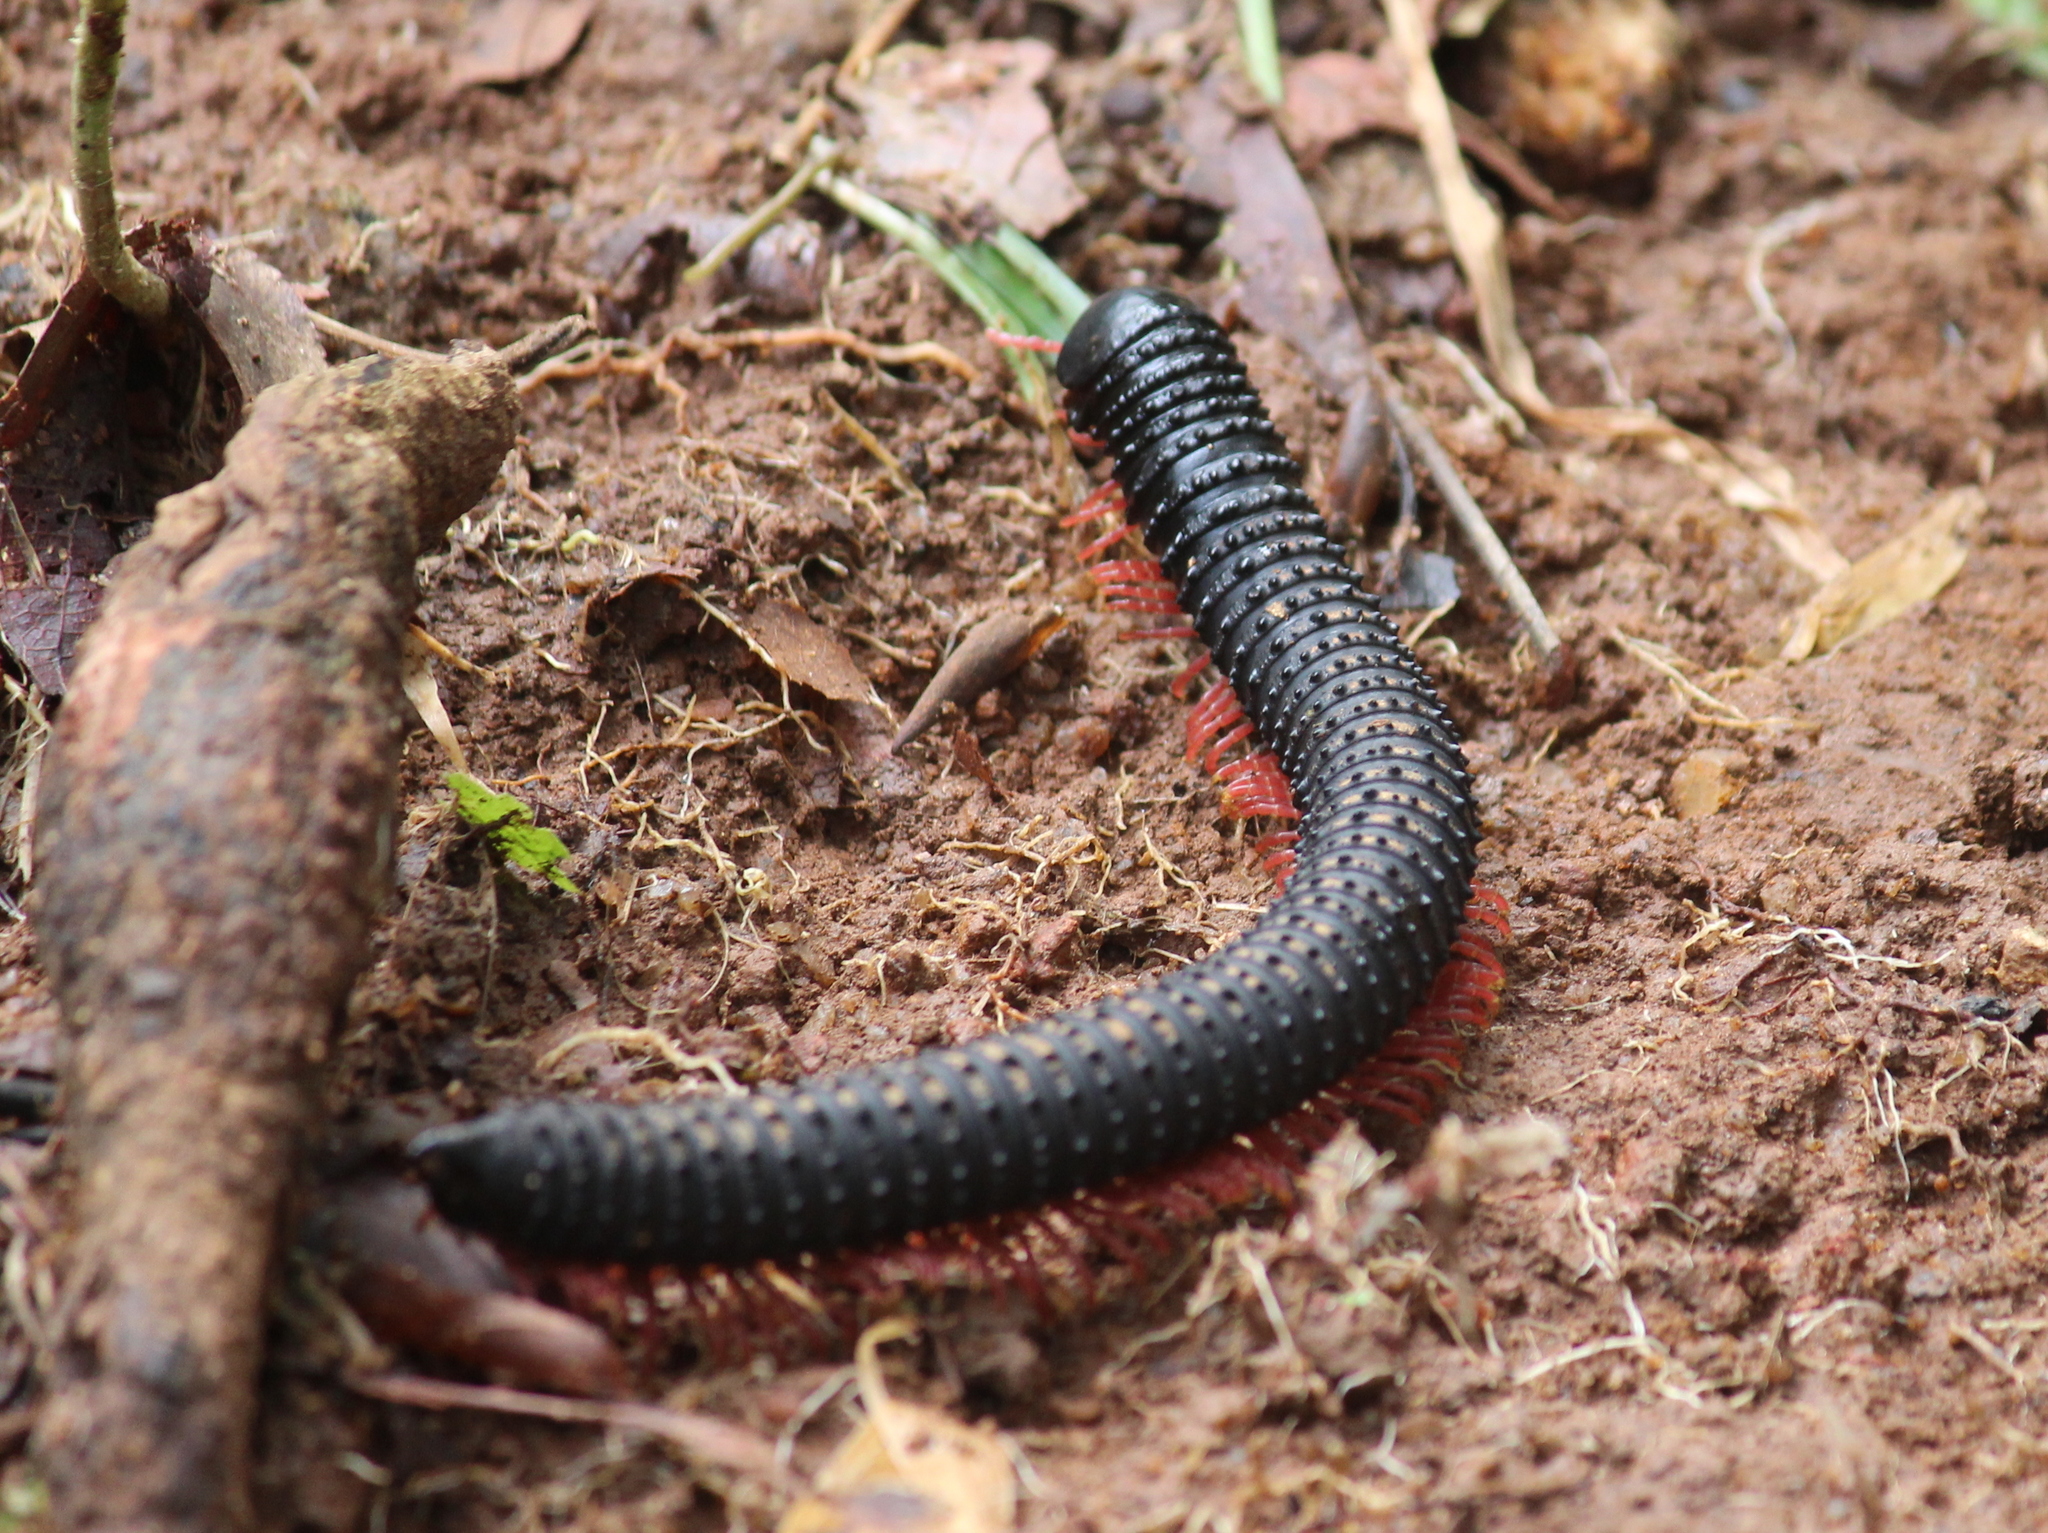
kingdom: Animalia
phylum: Arthropoda
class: Diplopoda
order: Spirobolida
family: Pachybolidae
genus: Eucentrobolus
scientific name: Eucentrobolus tamulus
